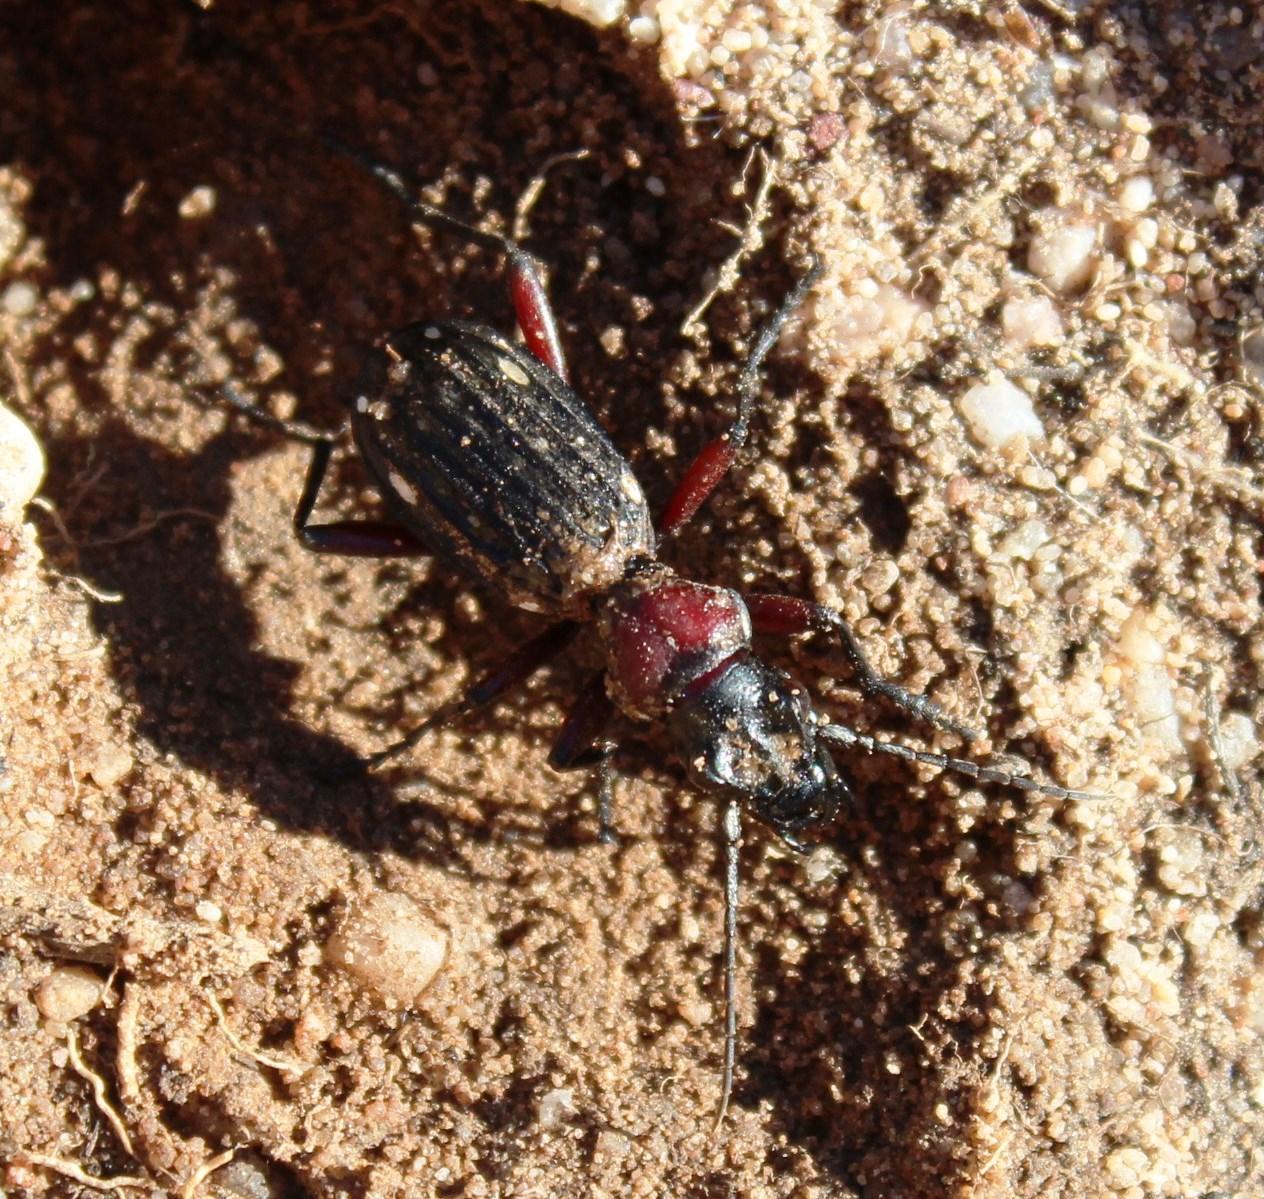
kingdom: Animalia
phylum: Arthropoda
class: Insecta
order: Coleoptera
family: Carabidae
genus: Anthia
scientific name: Anthia decemguttata
